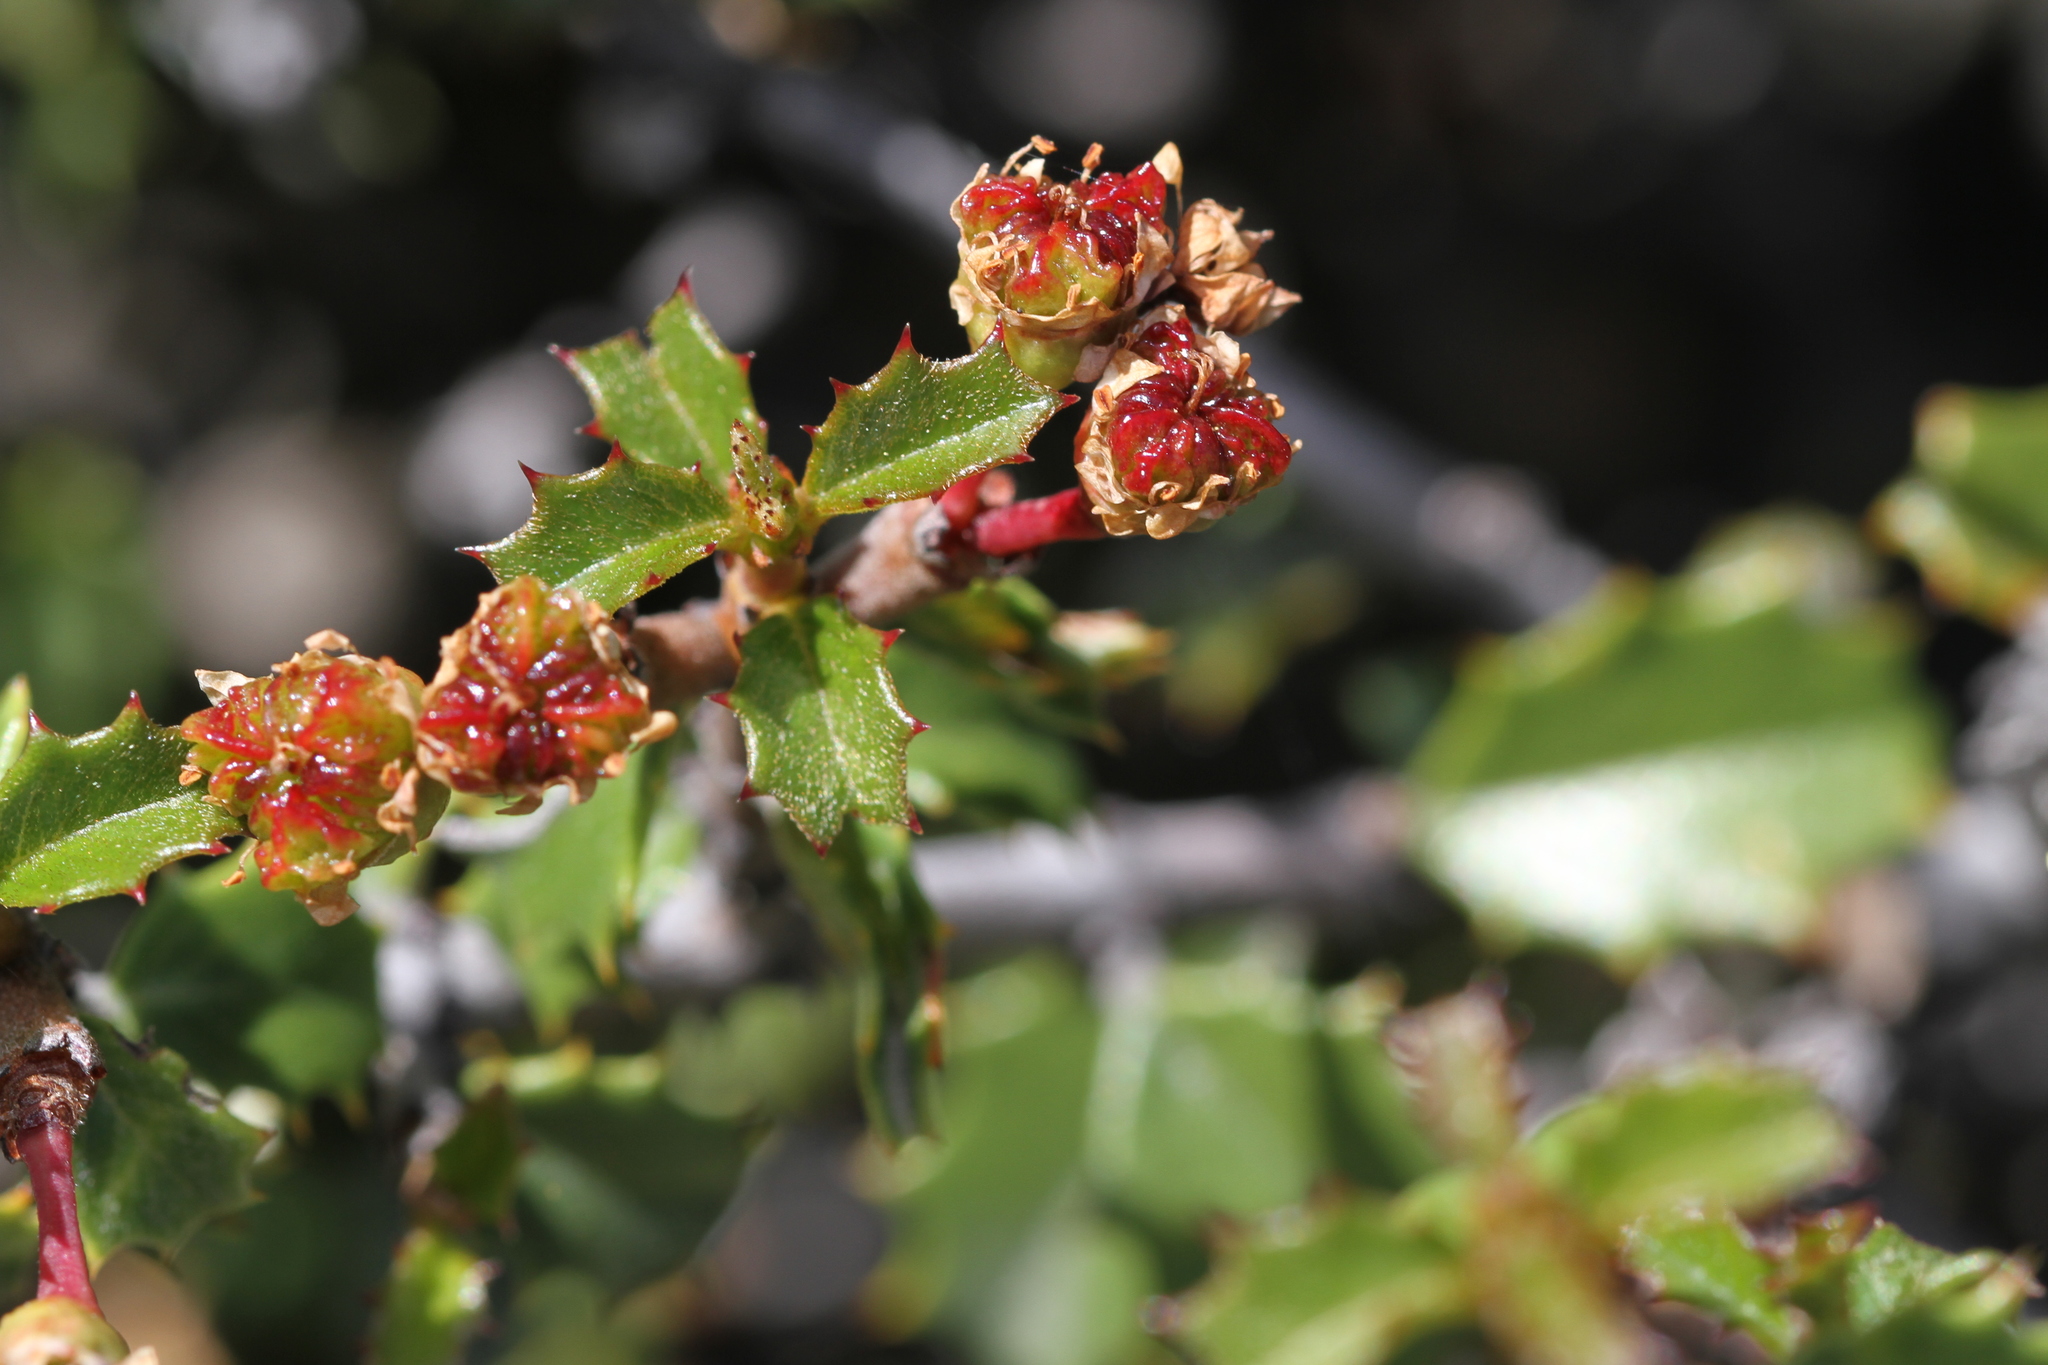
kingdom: Plantae
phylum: Tracheophyta
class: Magnoliopsida
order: Rosales
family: Rhamnaceae
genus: Ceanothus
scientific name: Ceanothus jepsonii
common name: Muskbrush
